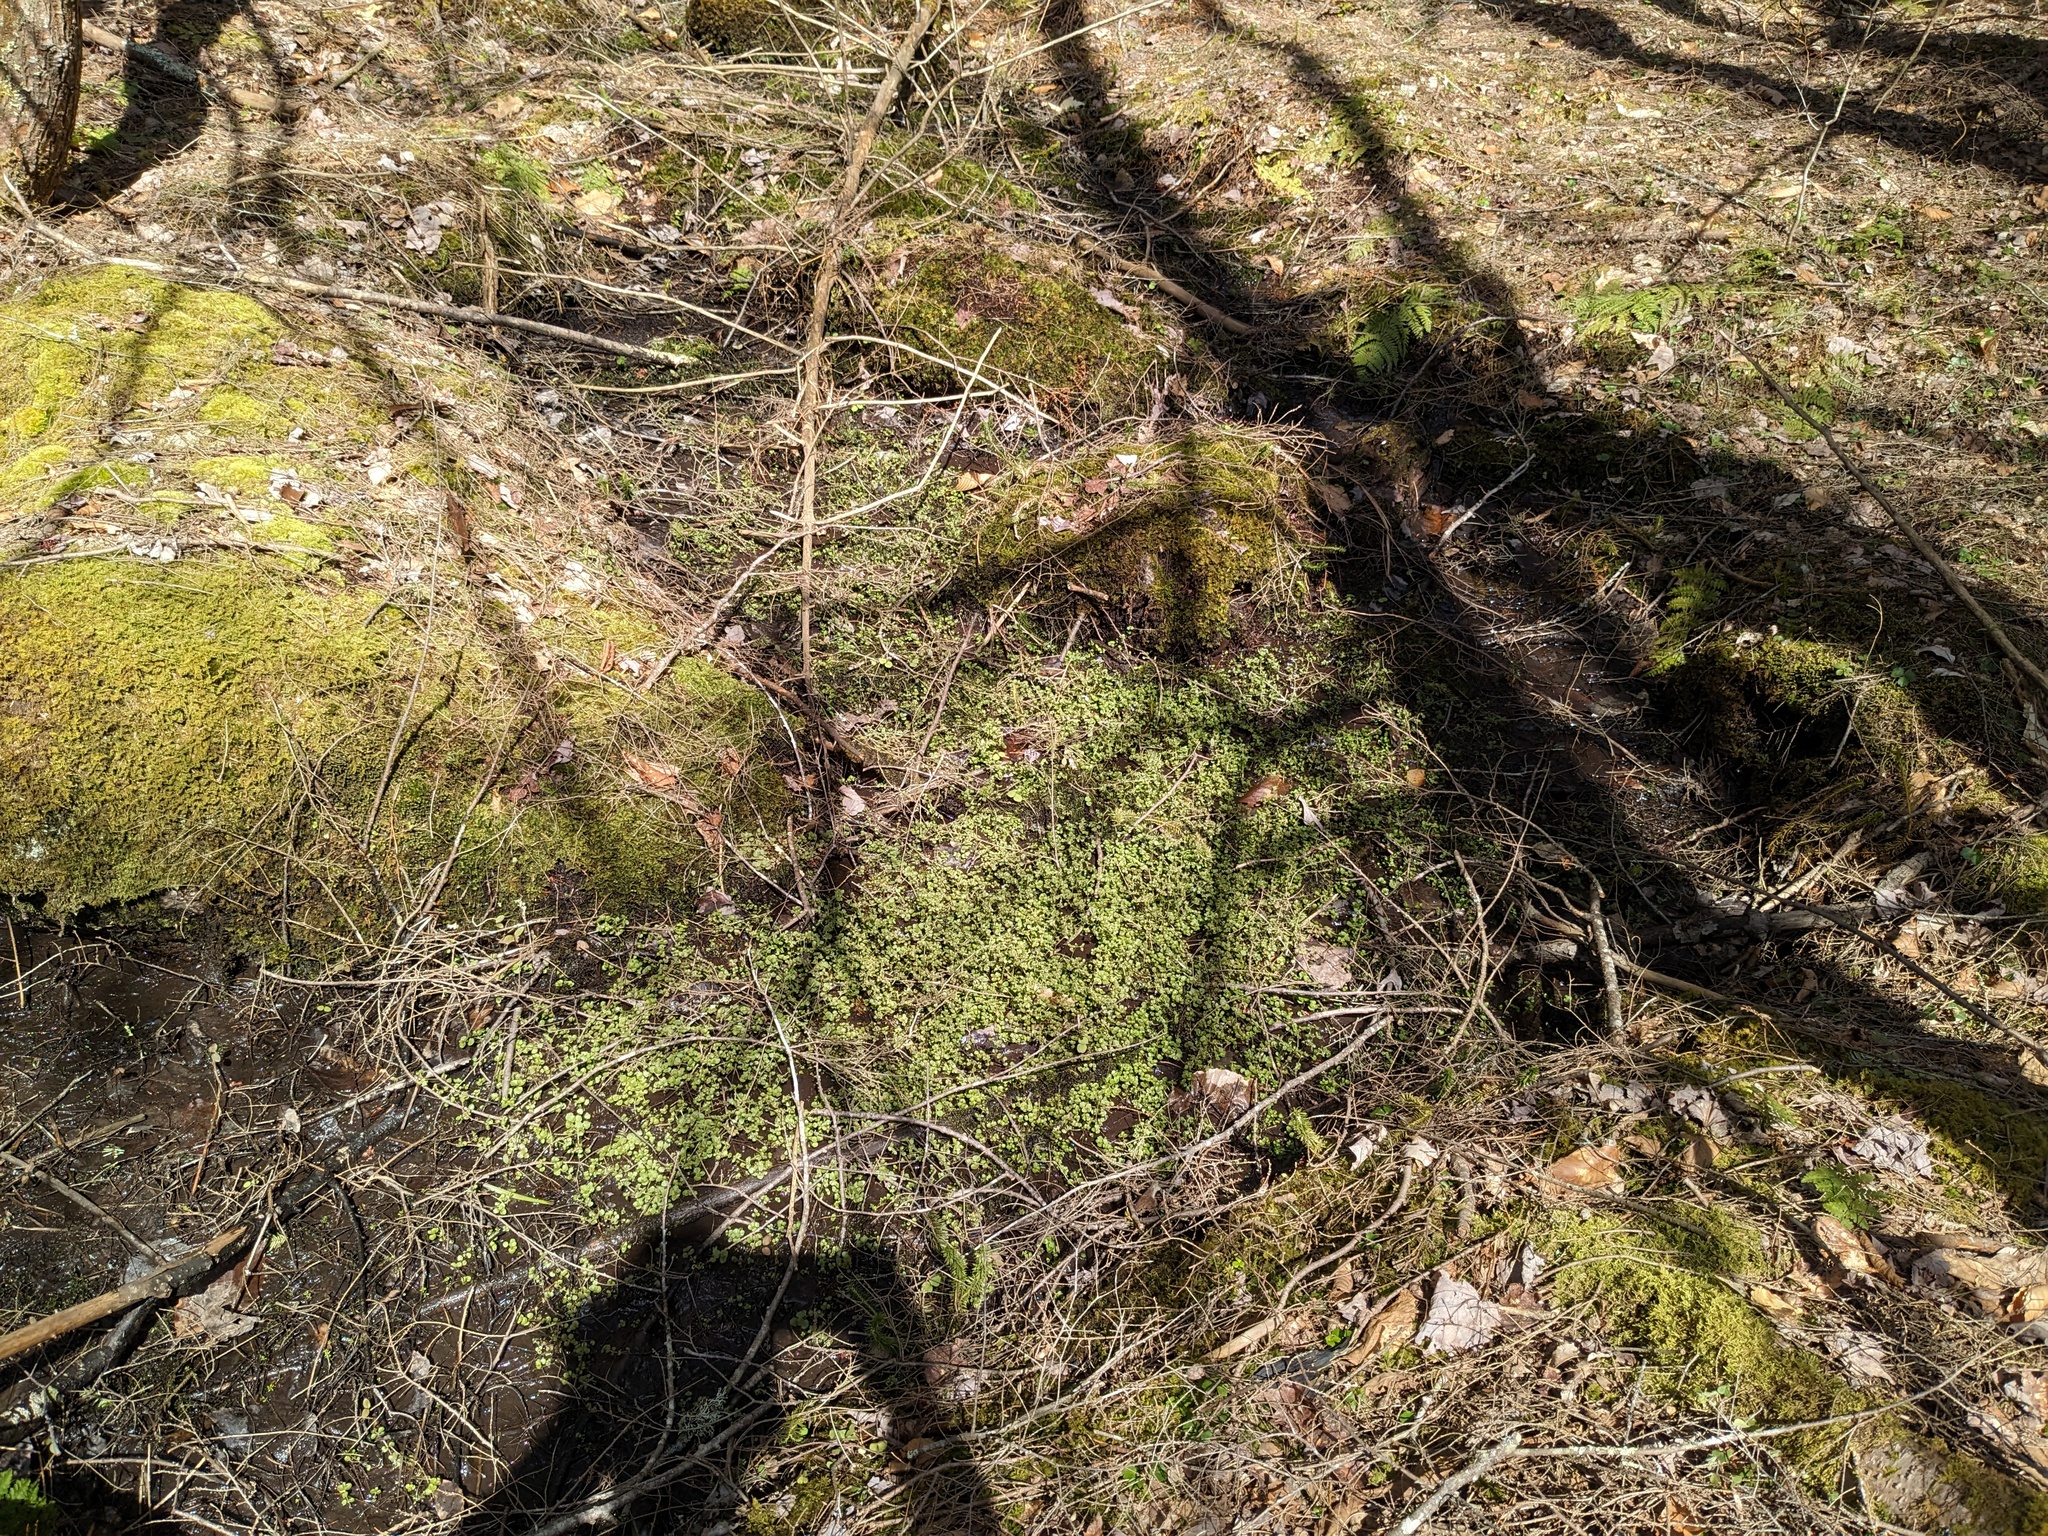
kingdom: Plantae
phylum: Tracheophyta
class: Magnoliopsida
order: Saxifragales
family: Saxifragaceae
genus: Chrysosplenium
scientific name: Chrysosplenium americanum
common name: American golden-saxifrage
